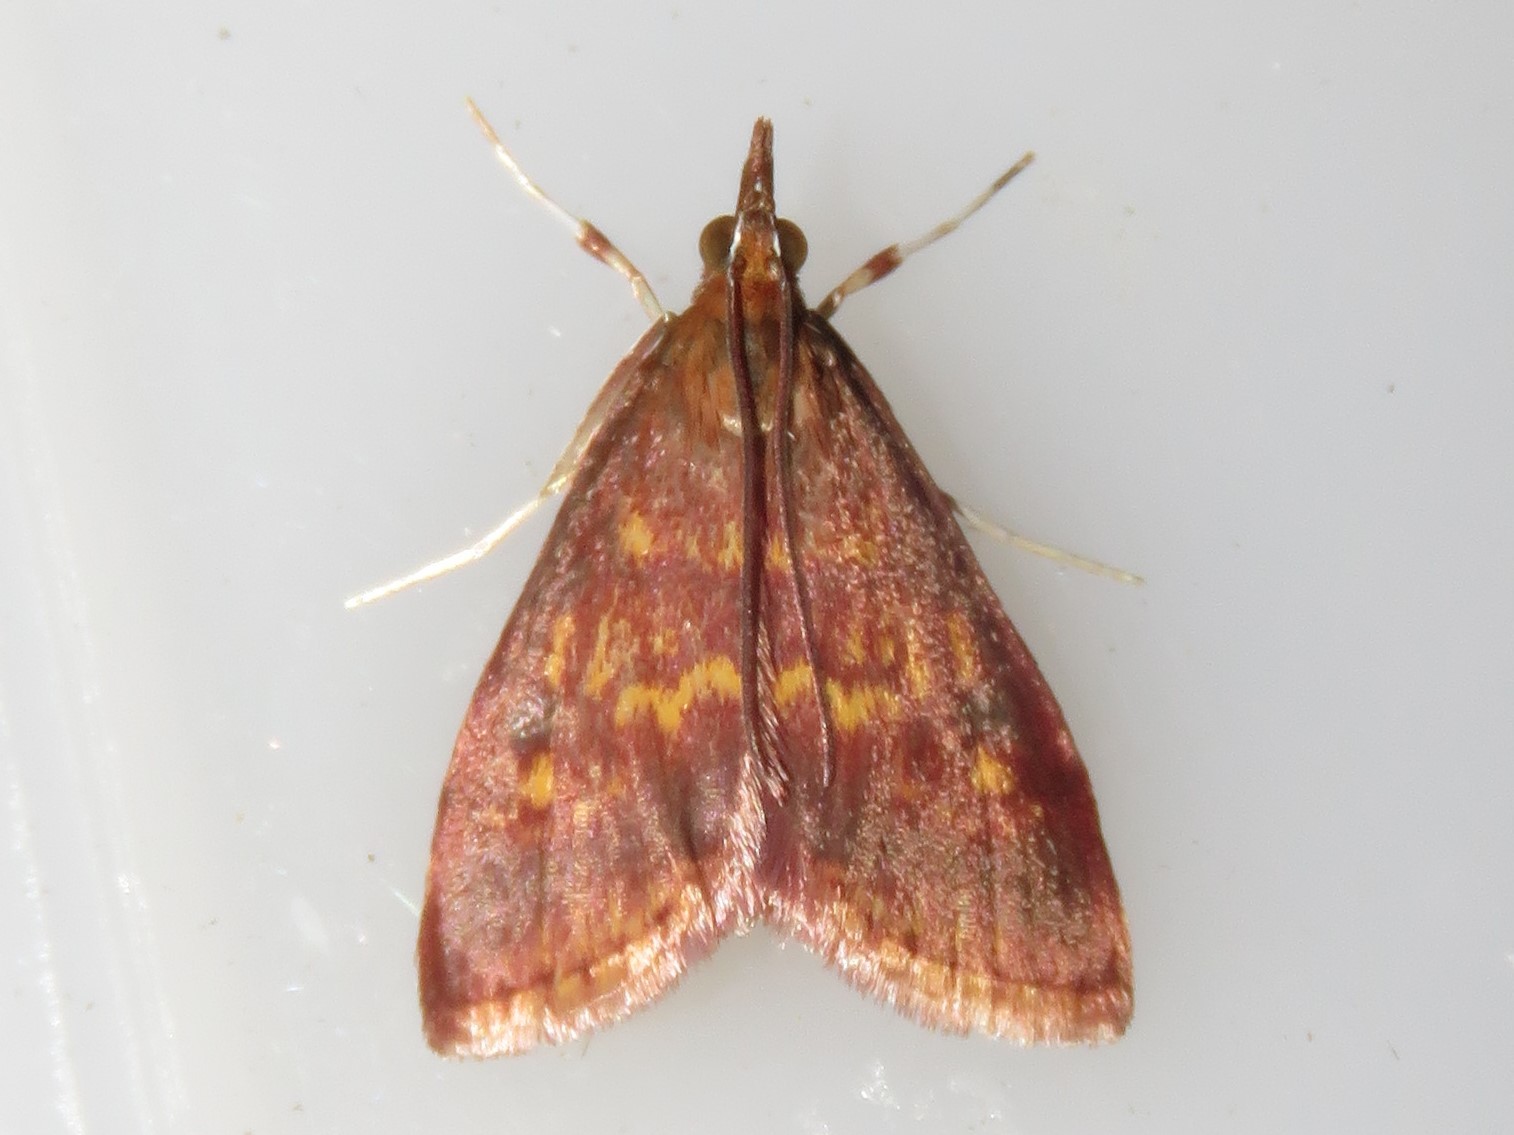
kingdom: Animalia
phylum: Arthropoda
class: Insecta
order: Lepidoptera
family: Crambidae
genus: Pyrausta
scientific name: Pyrausta acrionalis
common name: Mint-loving pyrausta moth
